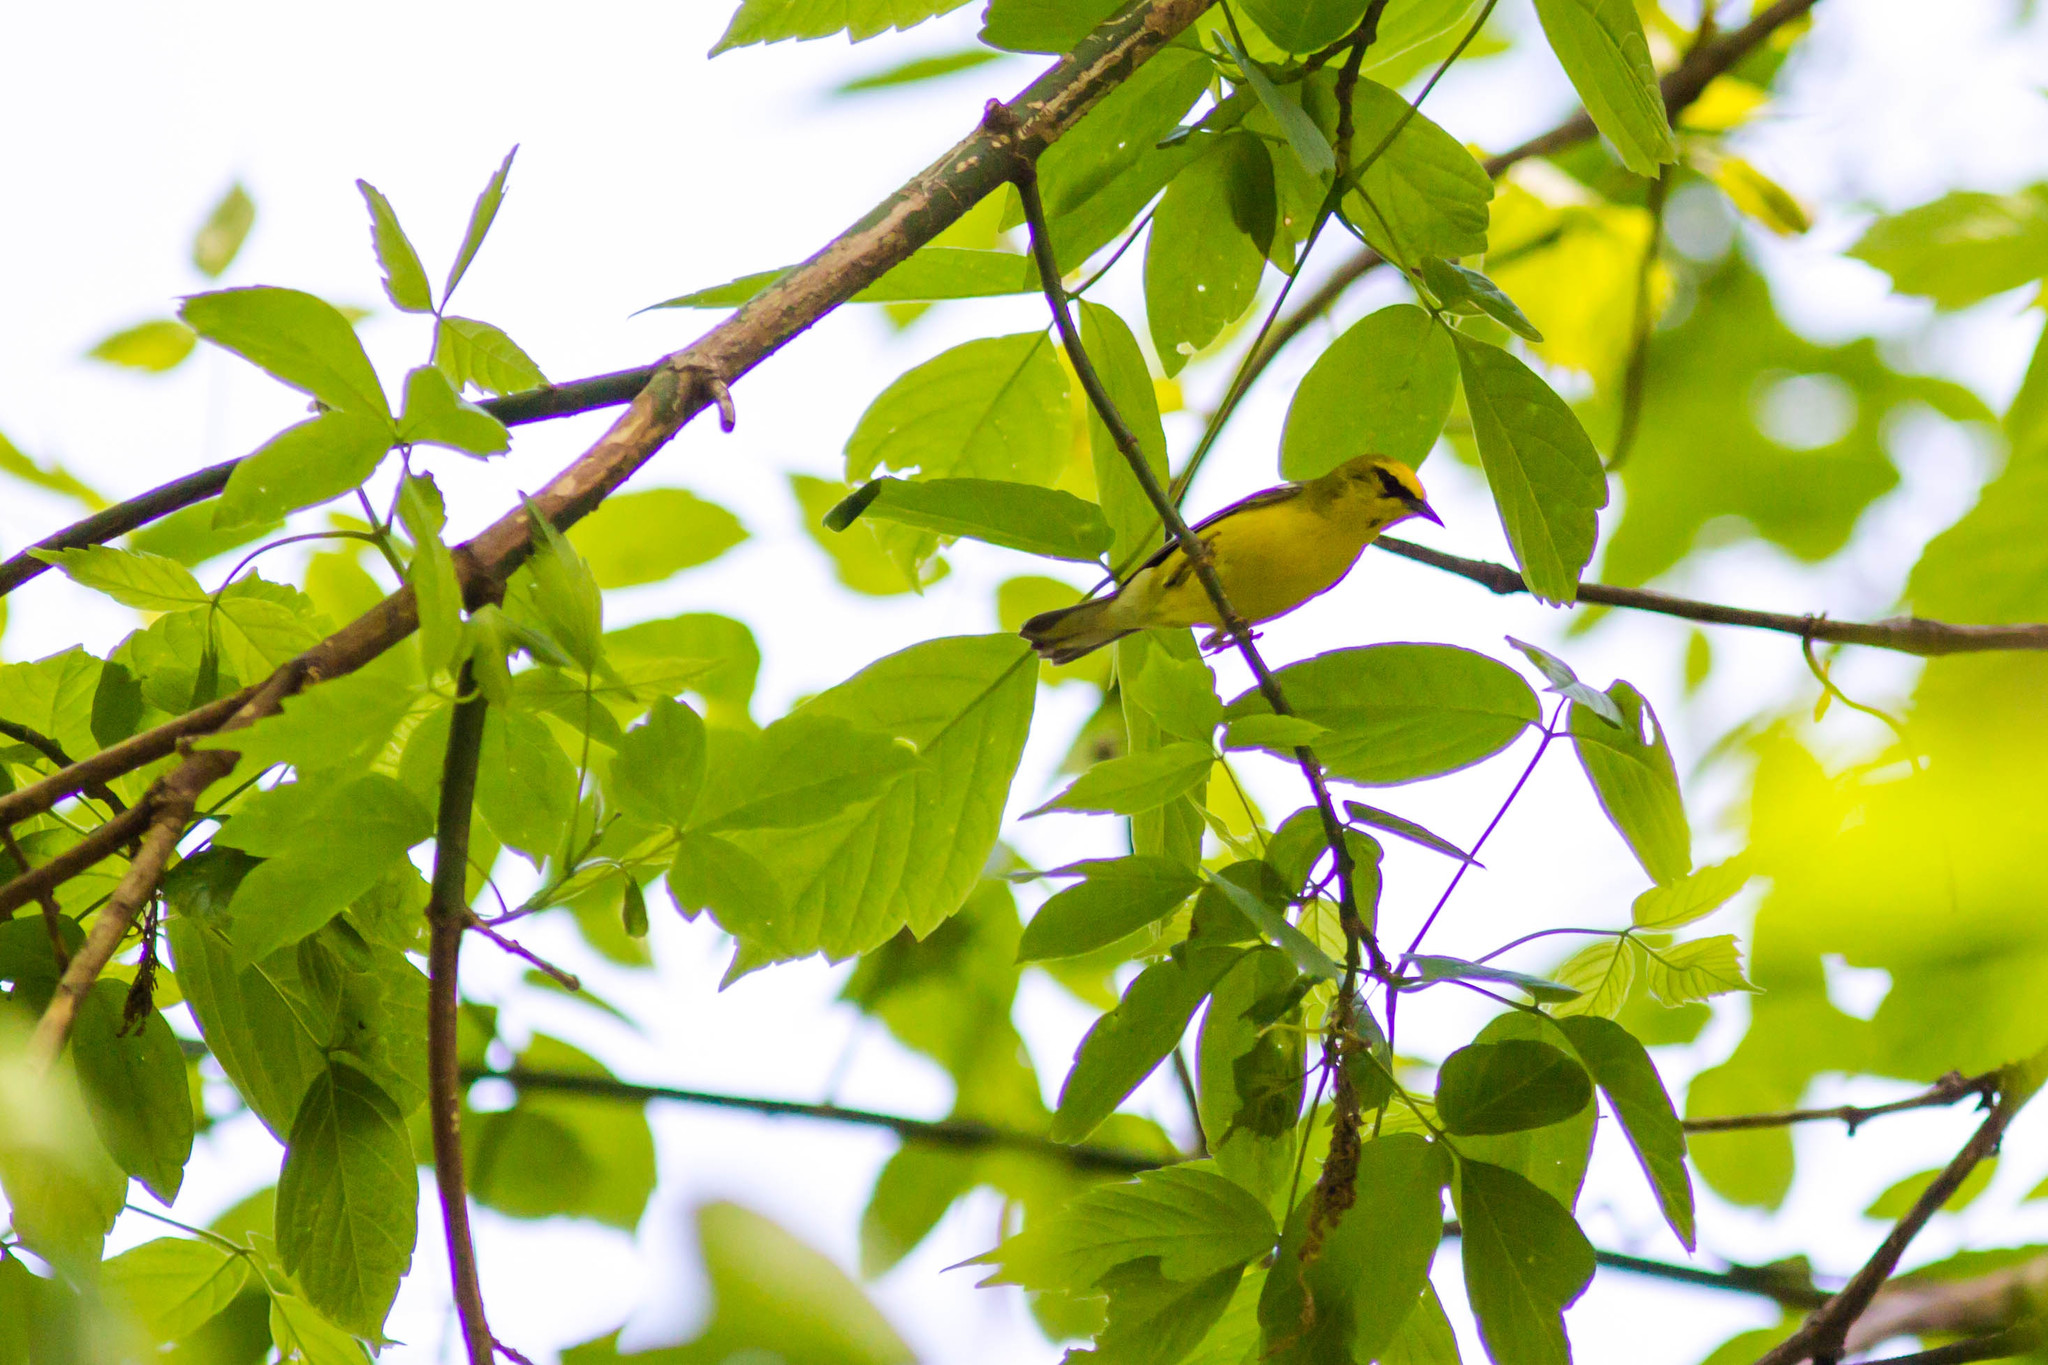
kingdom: Animalia
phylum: Chordata
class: Aves
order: Passeriformes
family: Parulidae
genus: Vermivora
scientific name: Vermivora cyanoptera
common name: Blue-winged warbler
